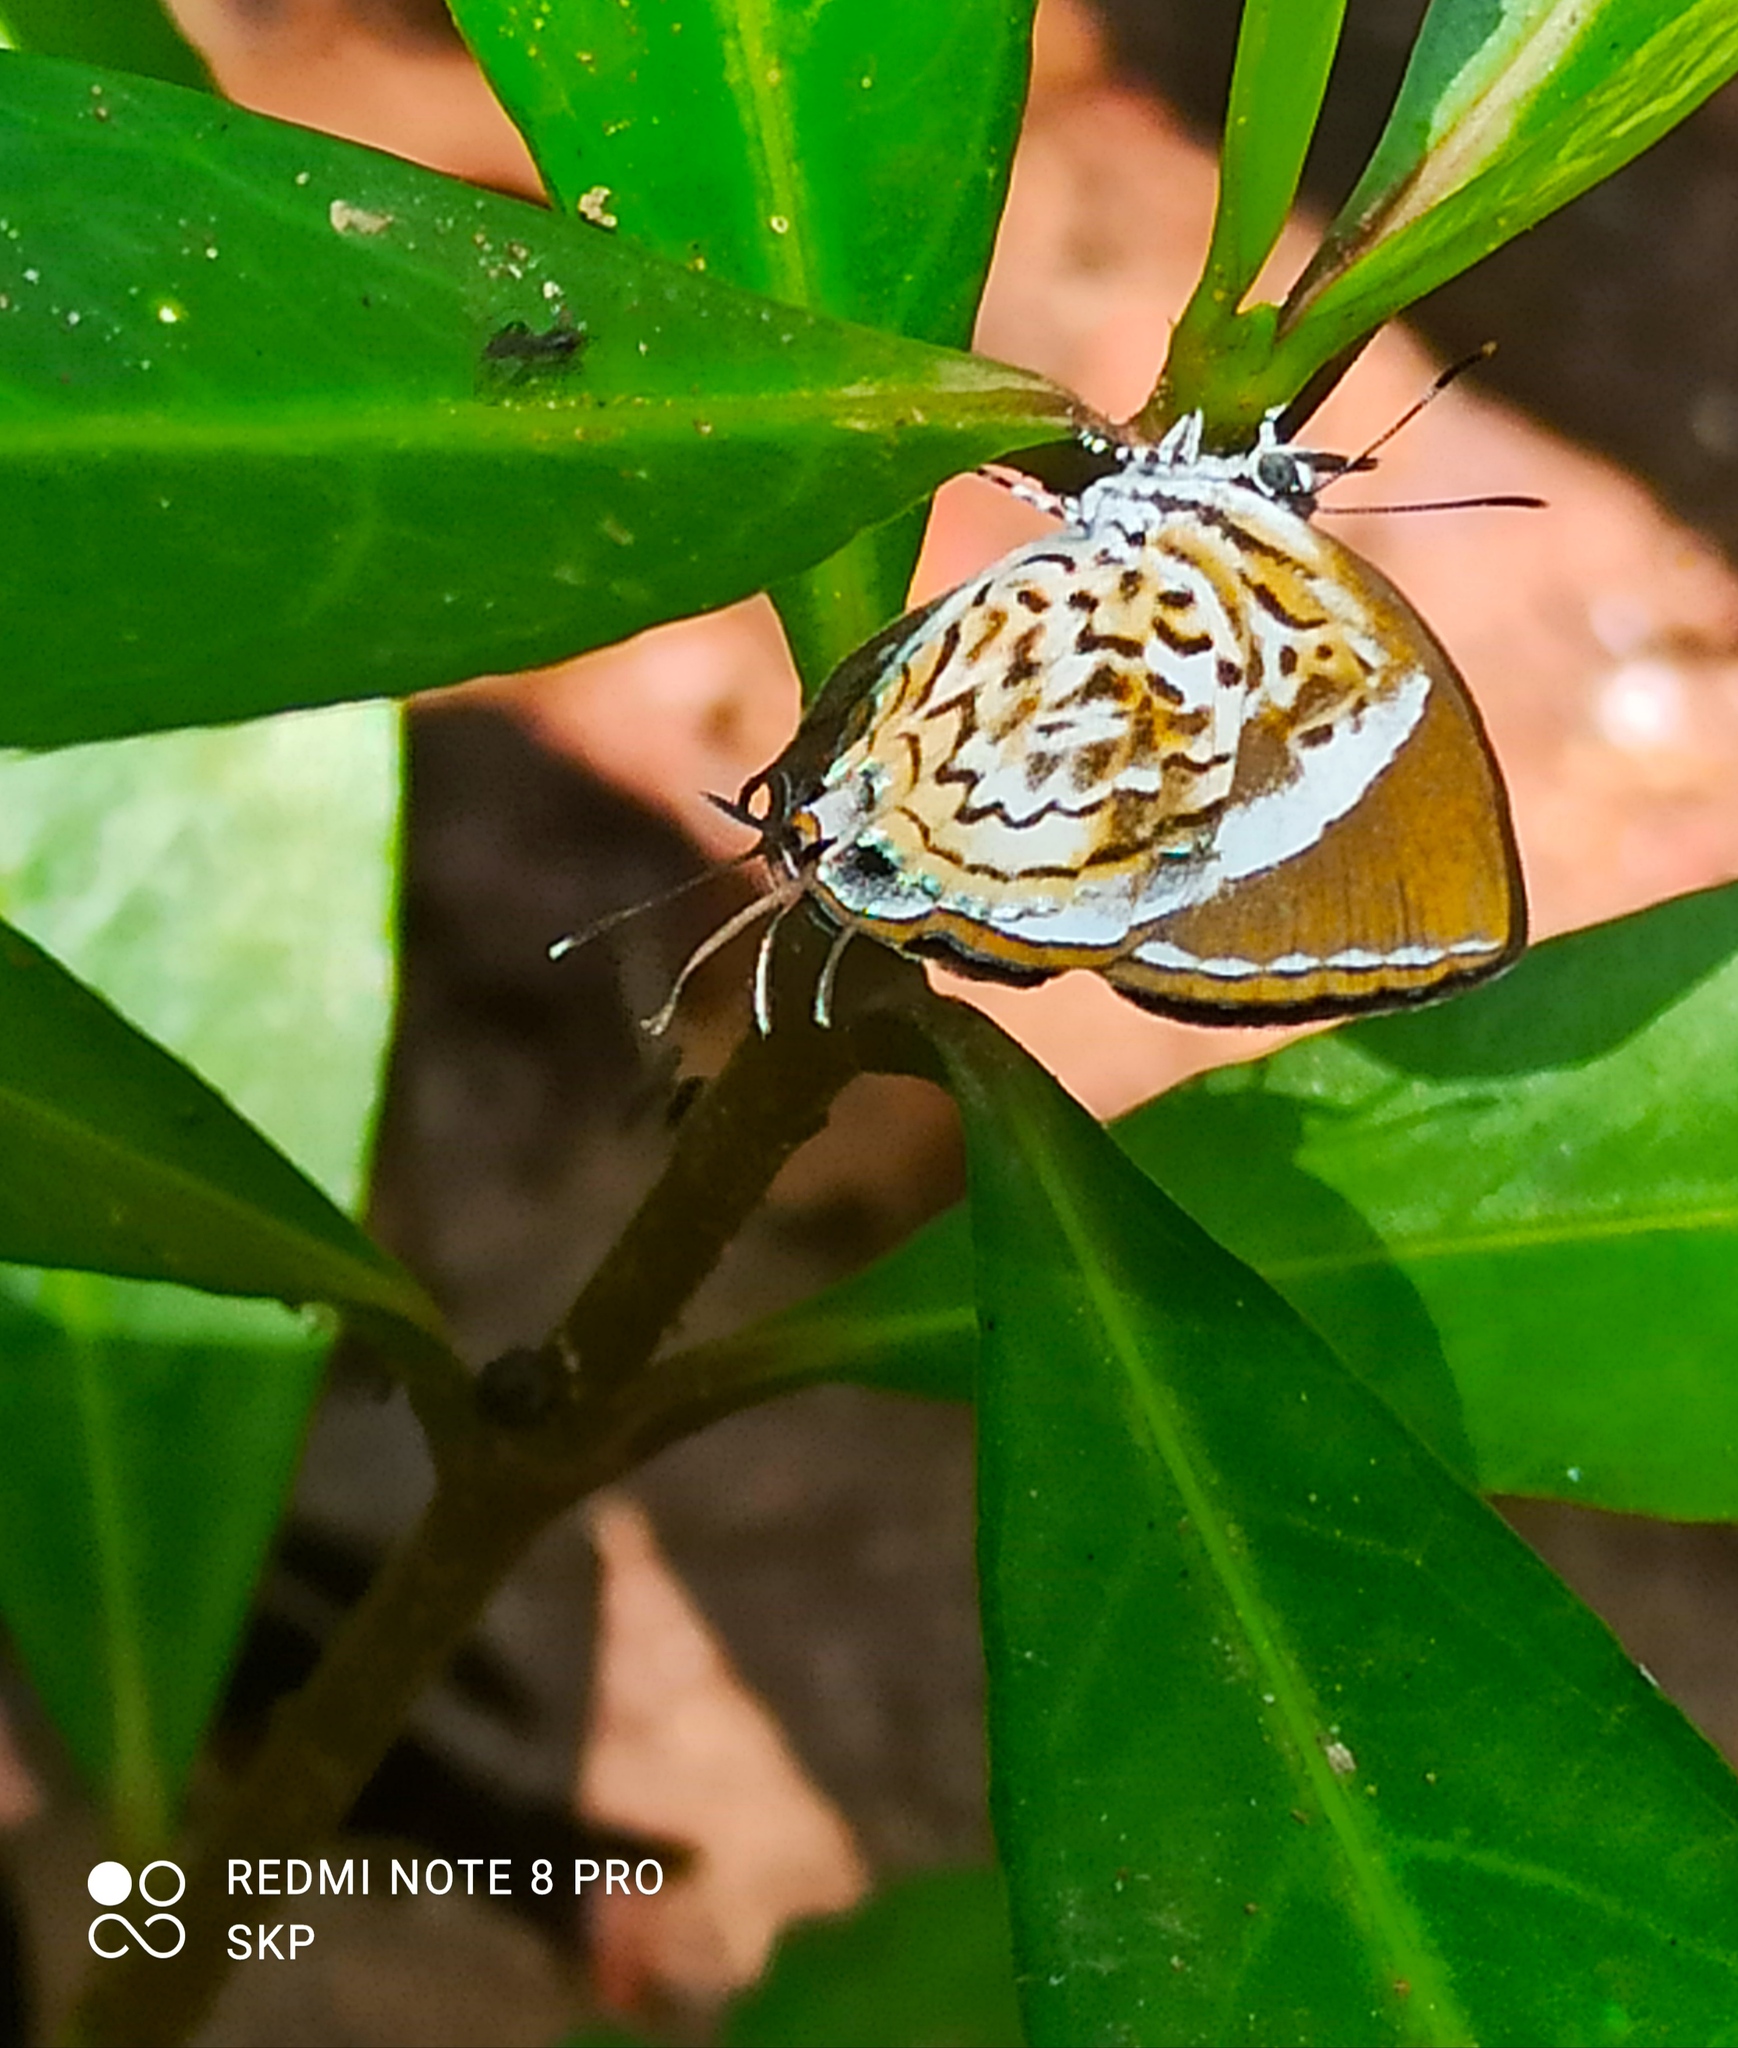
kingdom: Animalia
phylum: Arthropoda
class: Insecta
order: Lepidoptera
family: Lycaenidae
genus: Rathinda
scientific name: Rathinda amor
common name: Monkey puzzle
